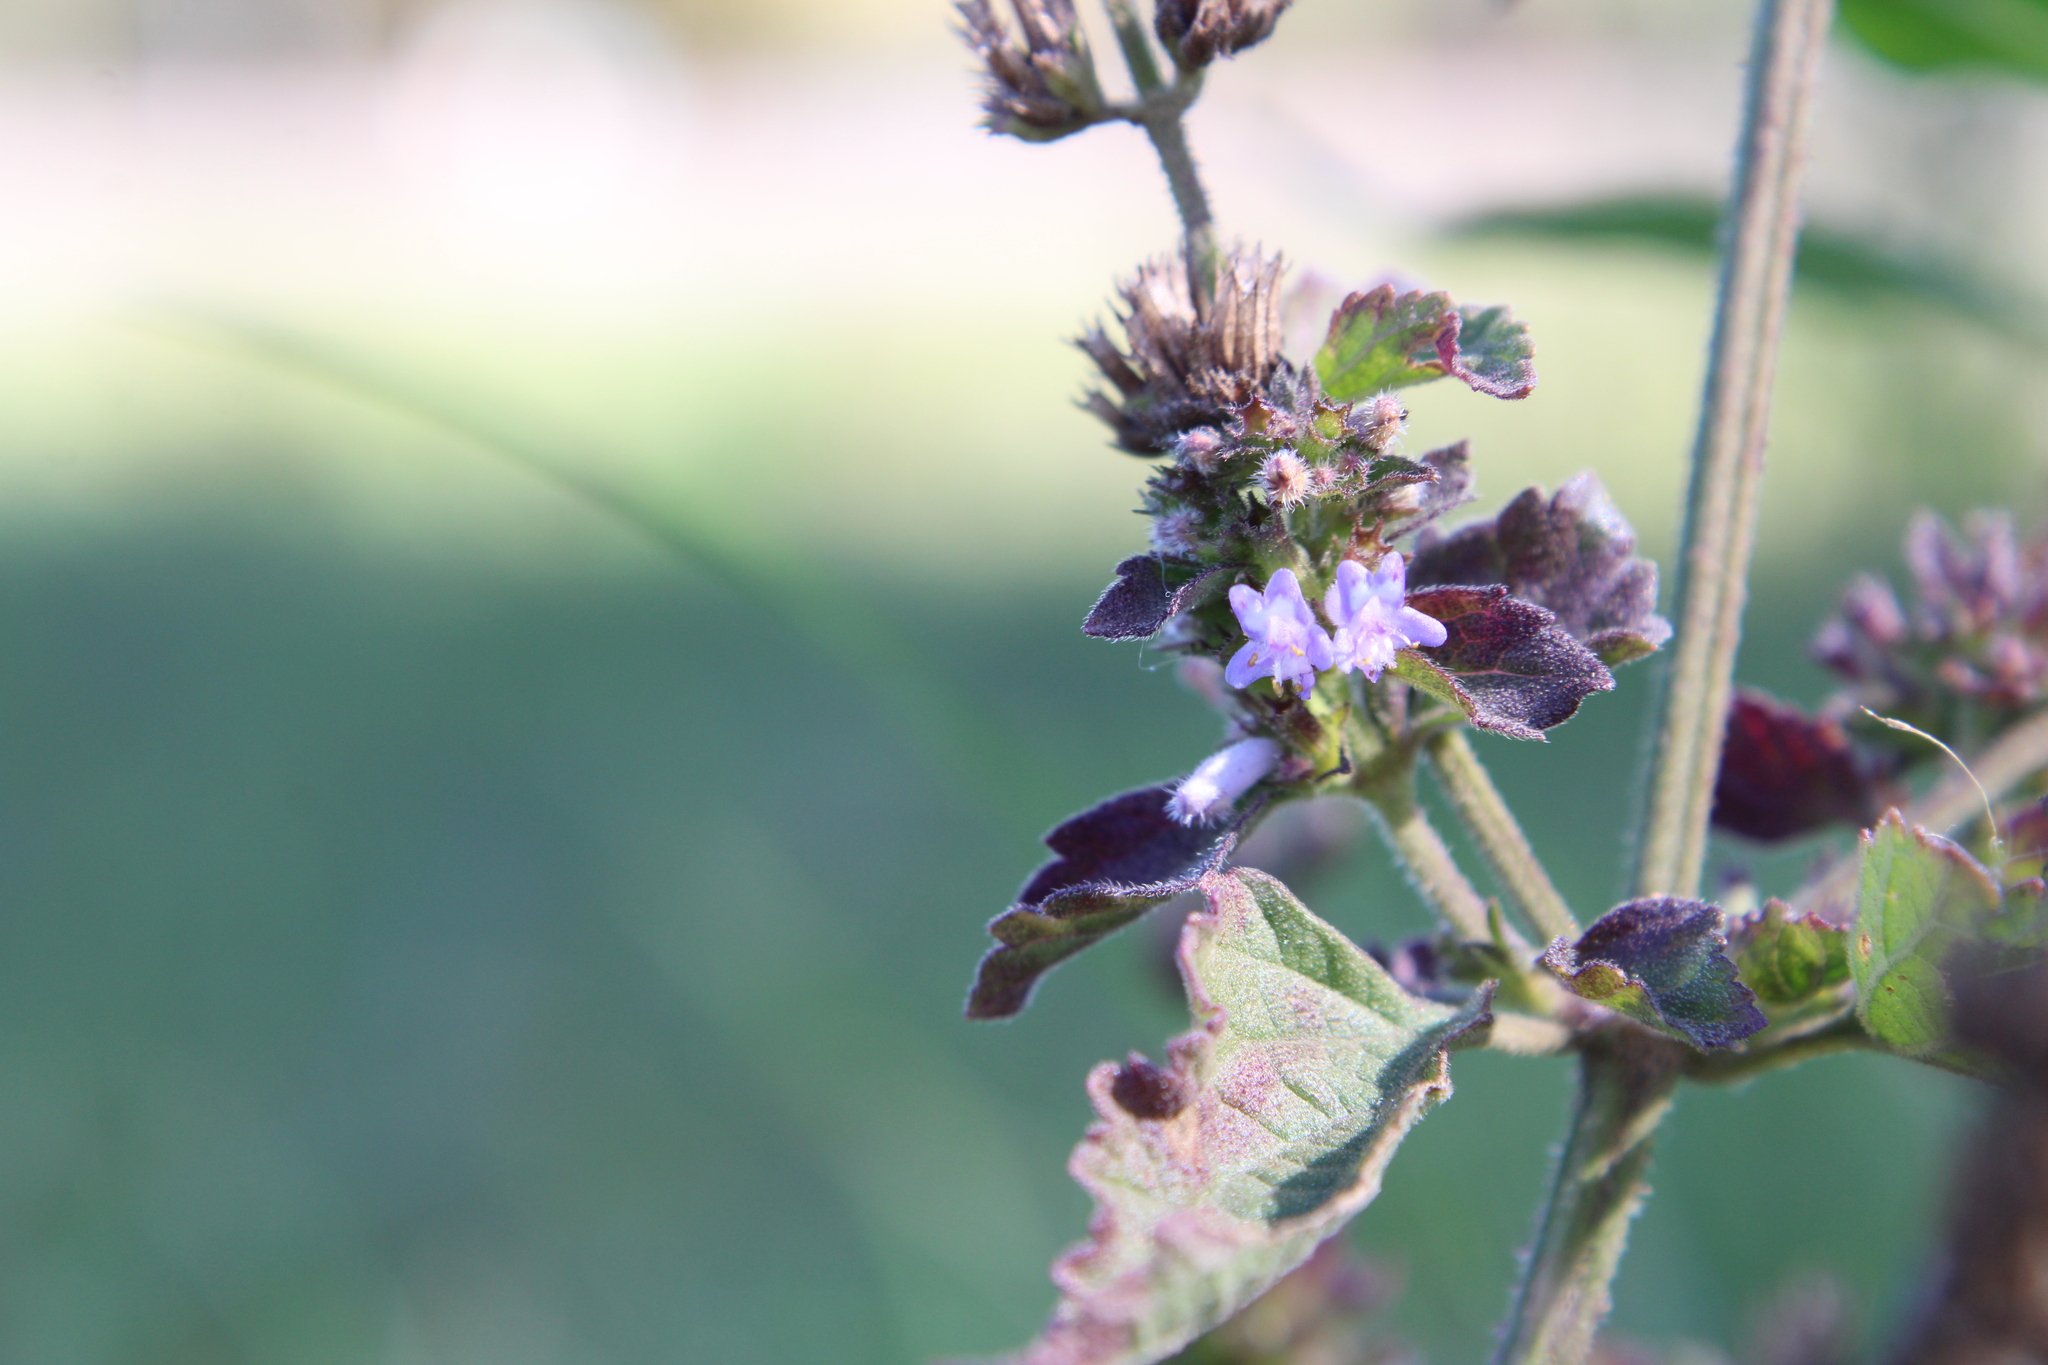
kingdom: Plantae
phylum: Tracheophyta
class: Magnoliopsida
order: Lamiales
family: Lamiaceae
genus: Cantinoa
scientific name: Cantinoa mutabilis
